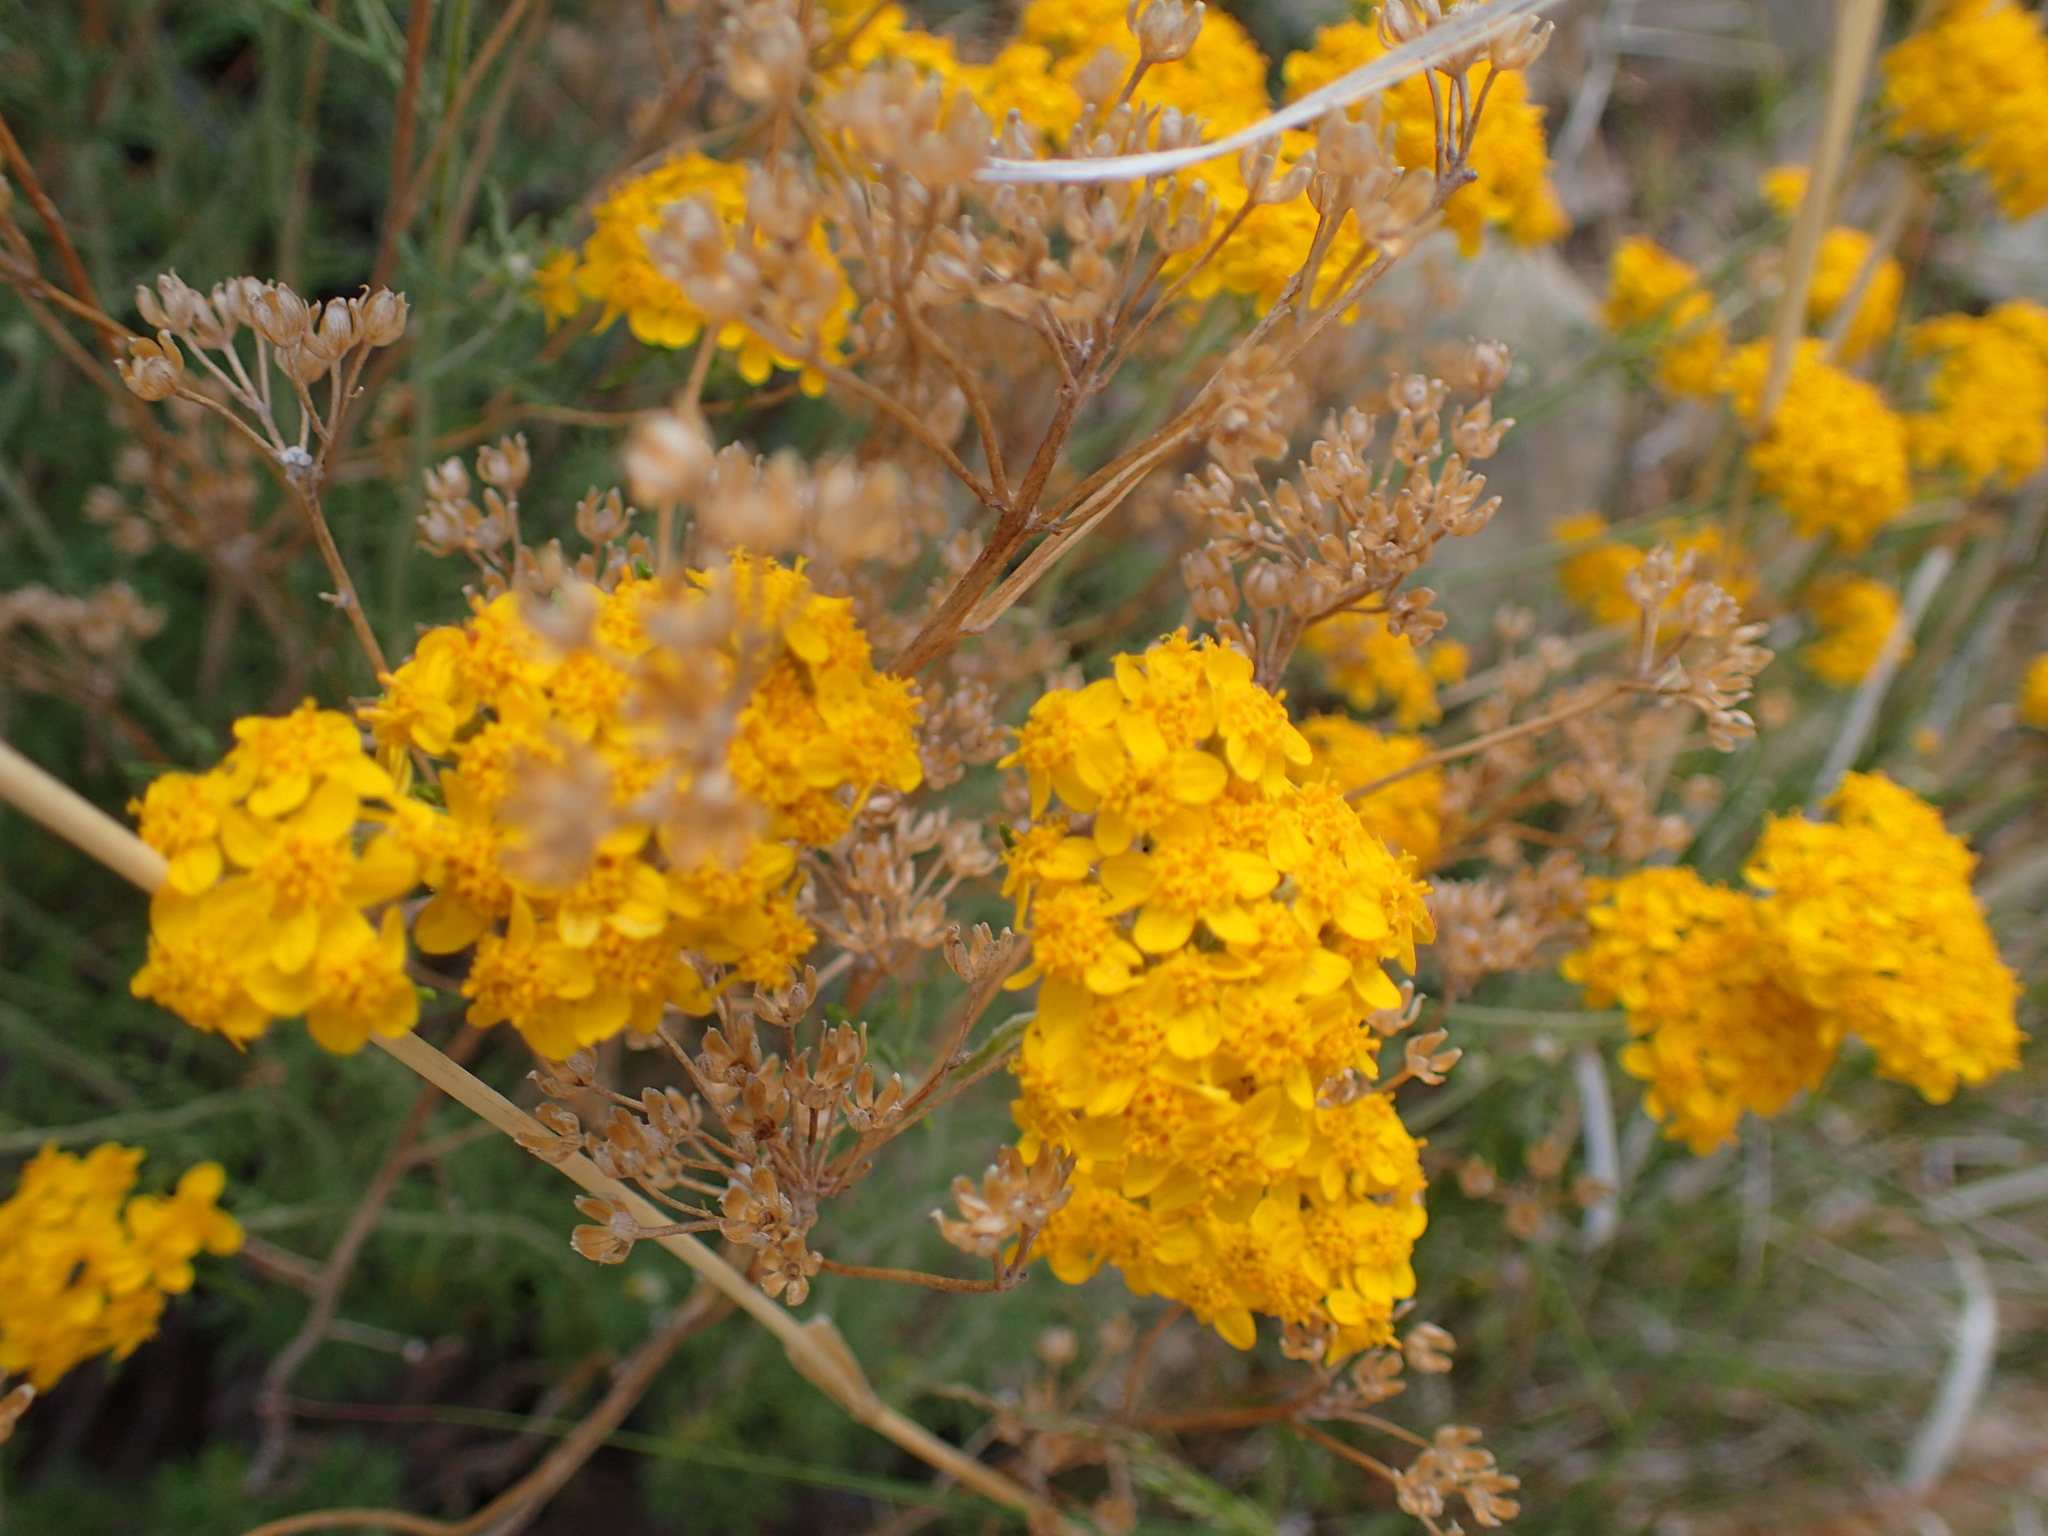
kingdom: Plantae
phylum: Tracheophyta
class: Magnoliopsida
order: Asterales
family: Asteraceae
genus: Eriophyllum
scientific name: Eriophyllum confertiflorum
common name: Golden-yarrow
